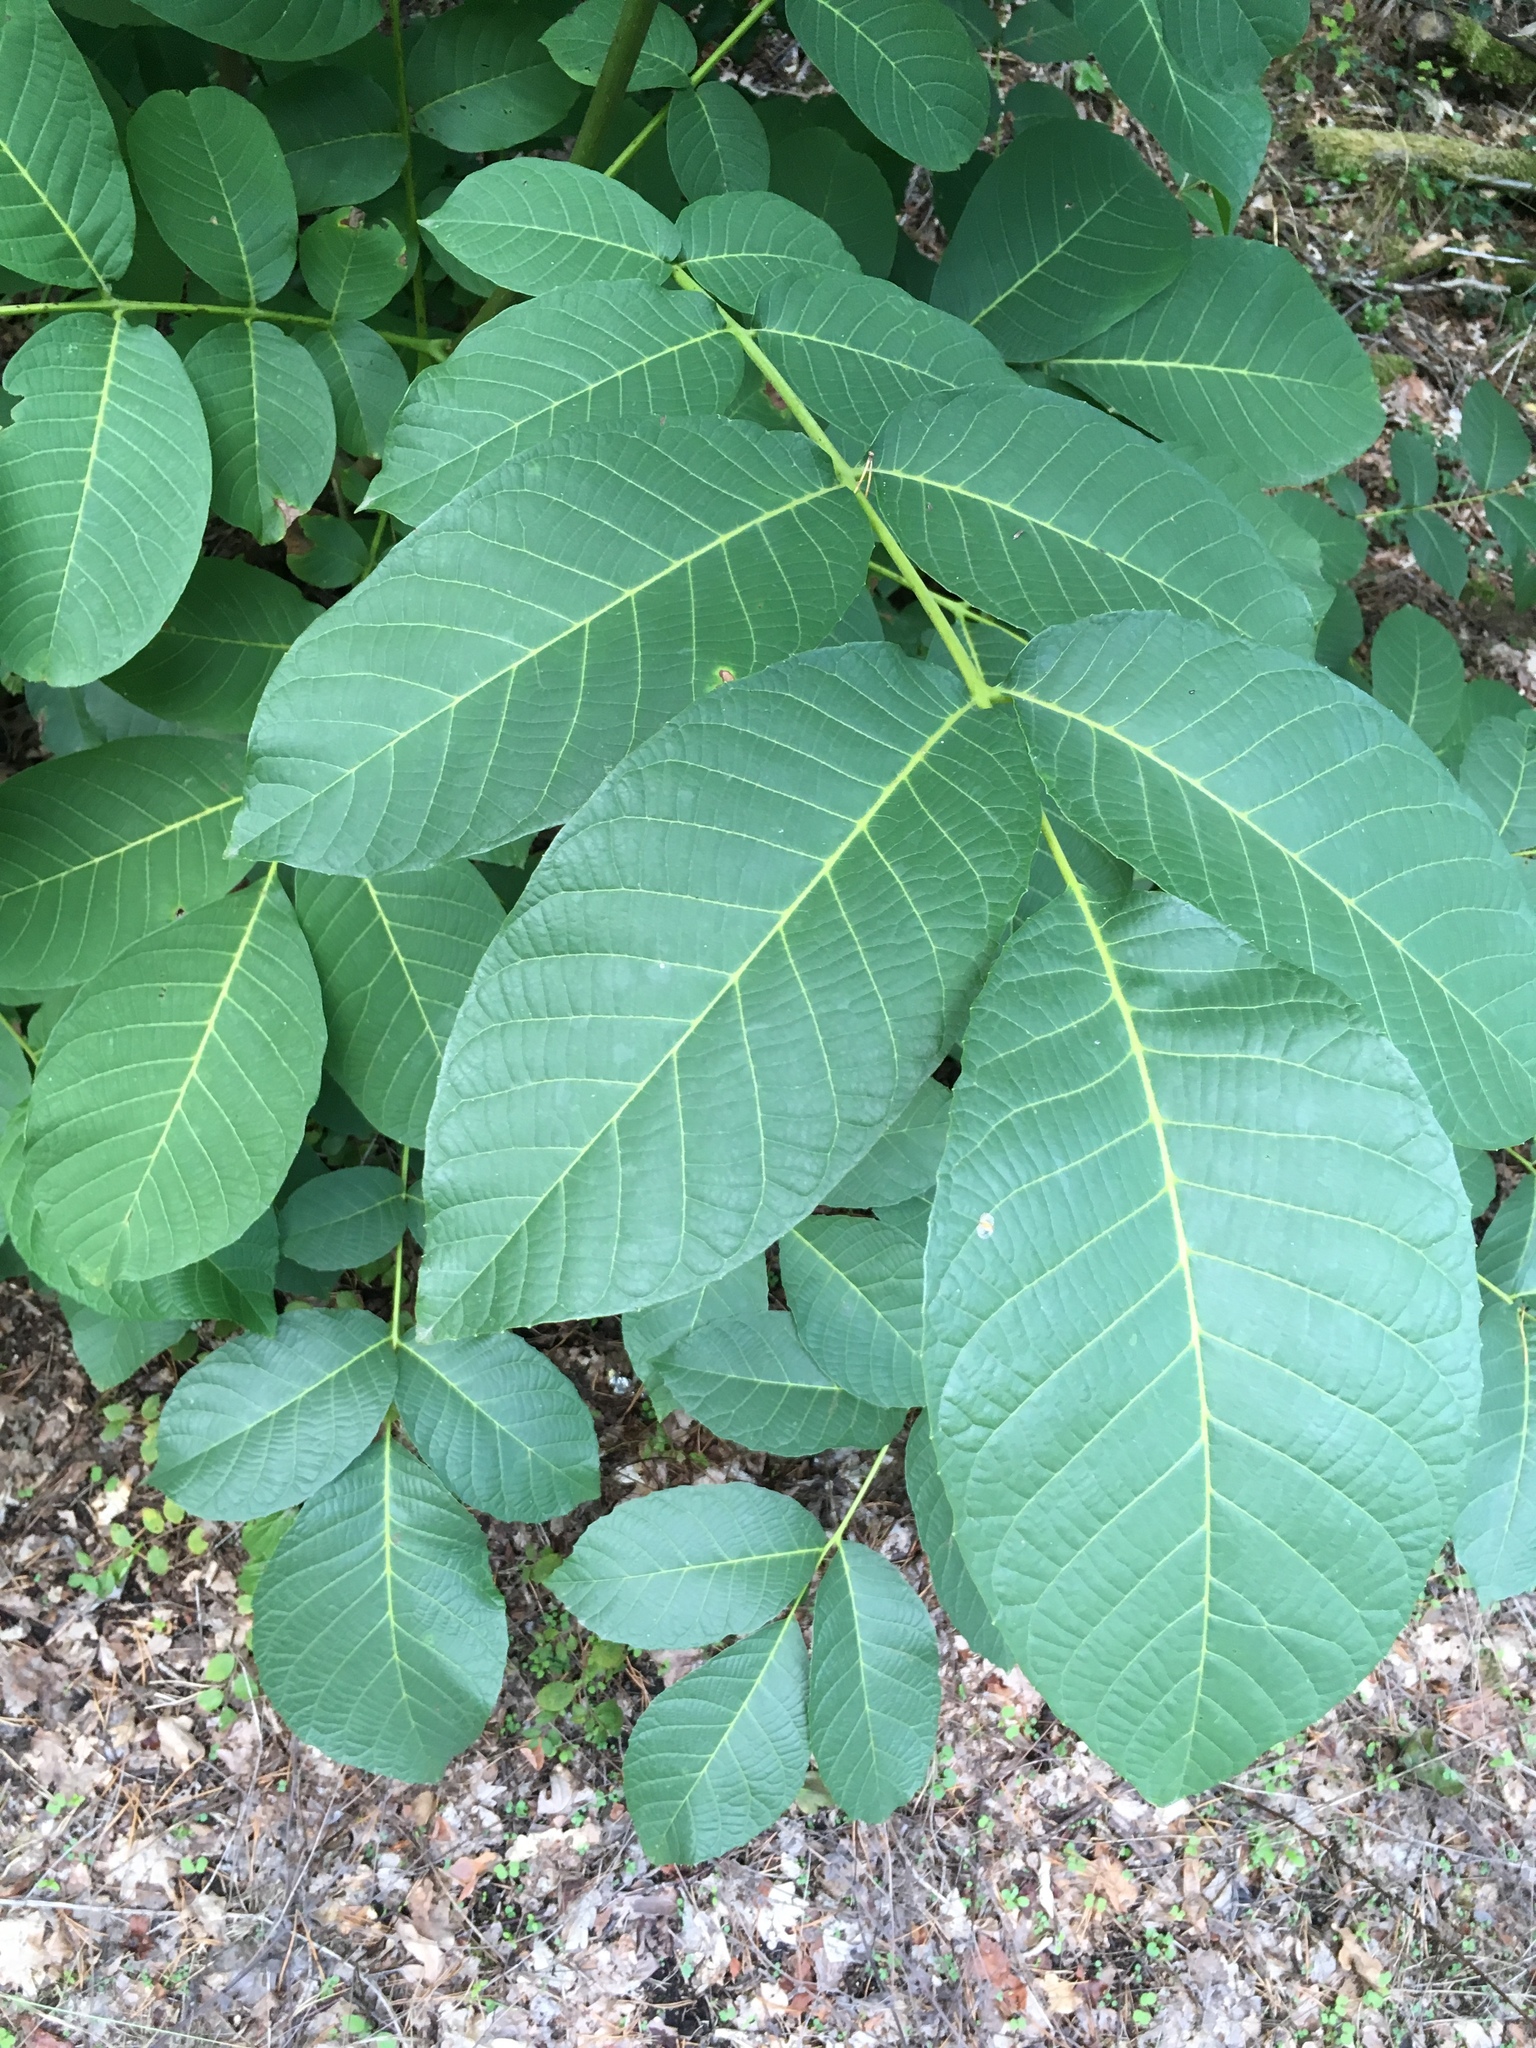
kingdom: Plantae
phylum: Tracheophyta
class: Magnoliopsida
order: Fagales
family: Juglandaceae
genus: Juglans
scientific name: Juglans regia
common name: Walnut
